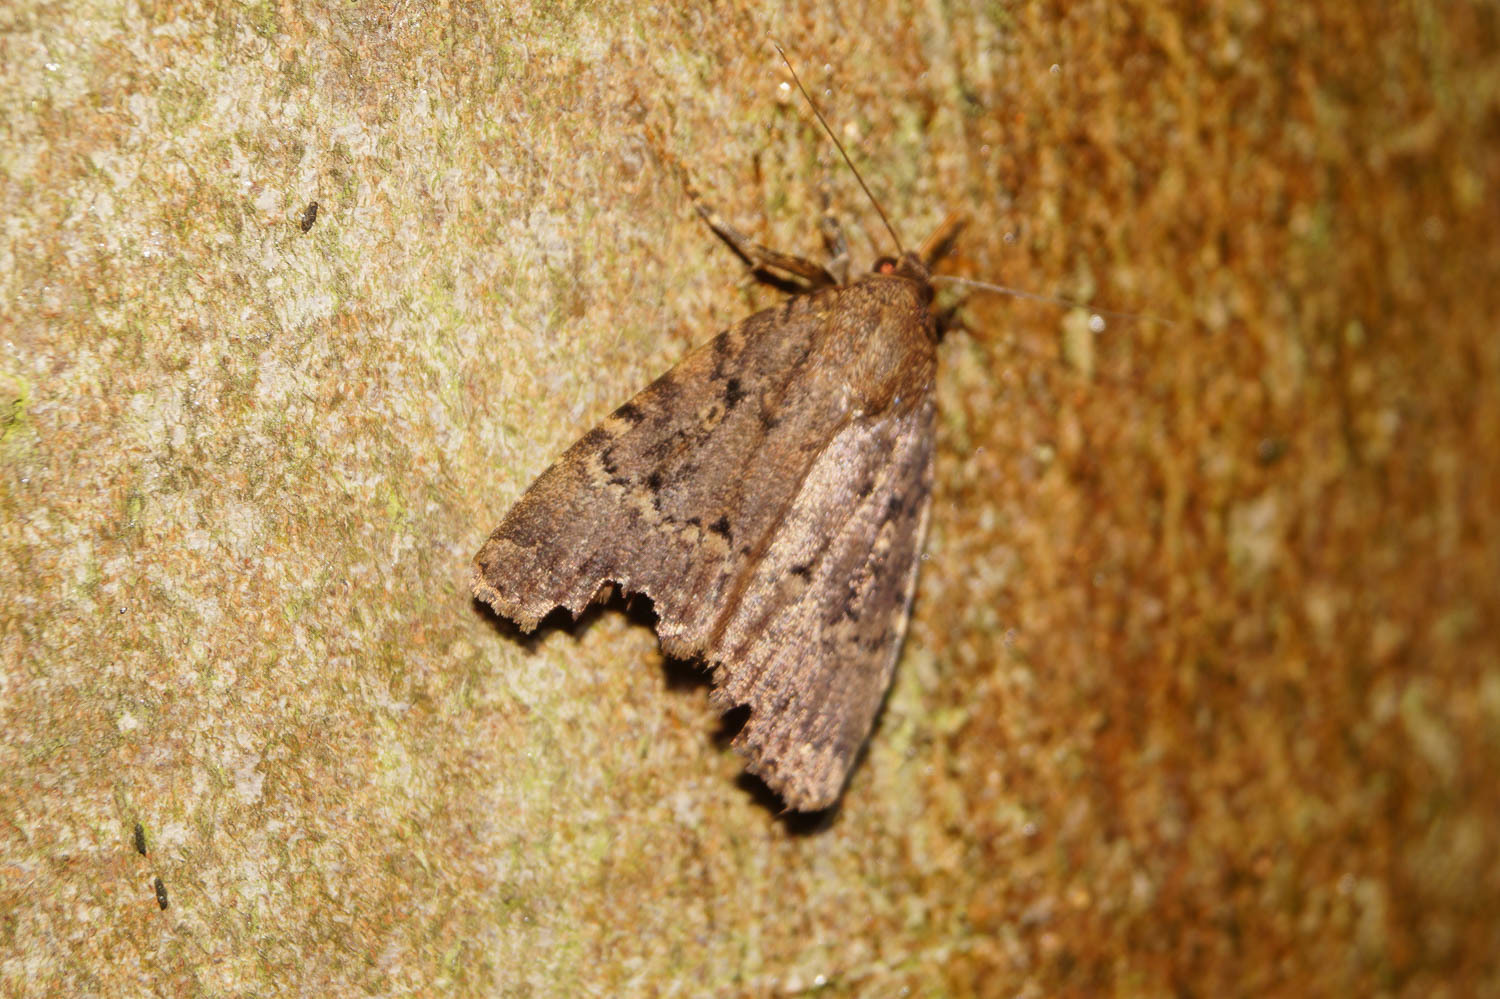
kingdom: Animalia
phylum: Arthropoda
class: Insecta
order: Lepidoptera
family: Noctuidae
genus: Amphipyra
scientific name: Amphipyra pyramidea
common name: Copper underwing
